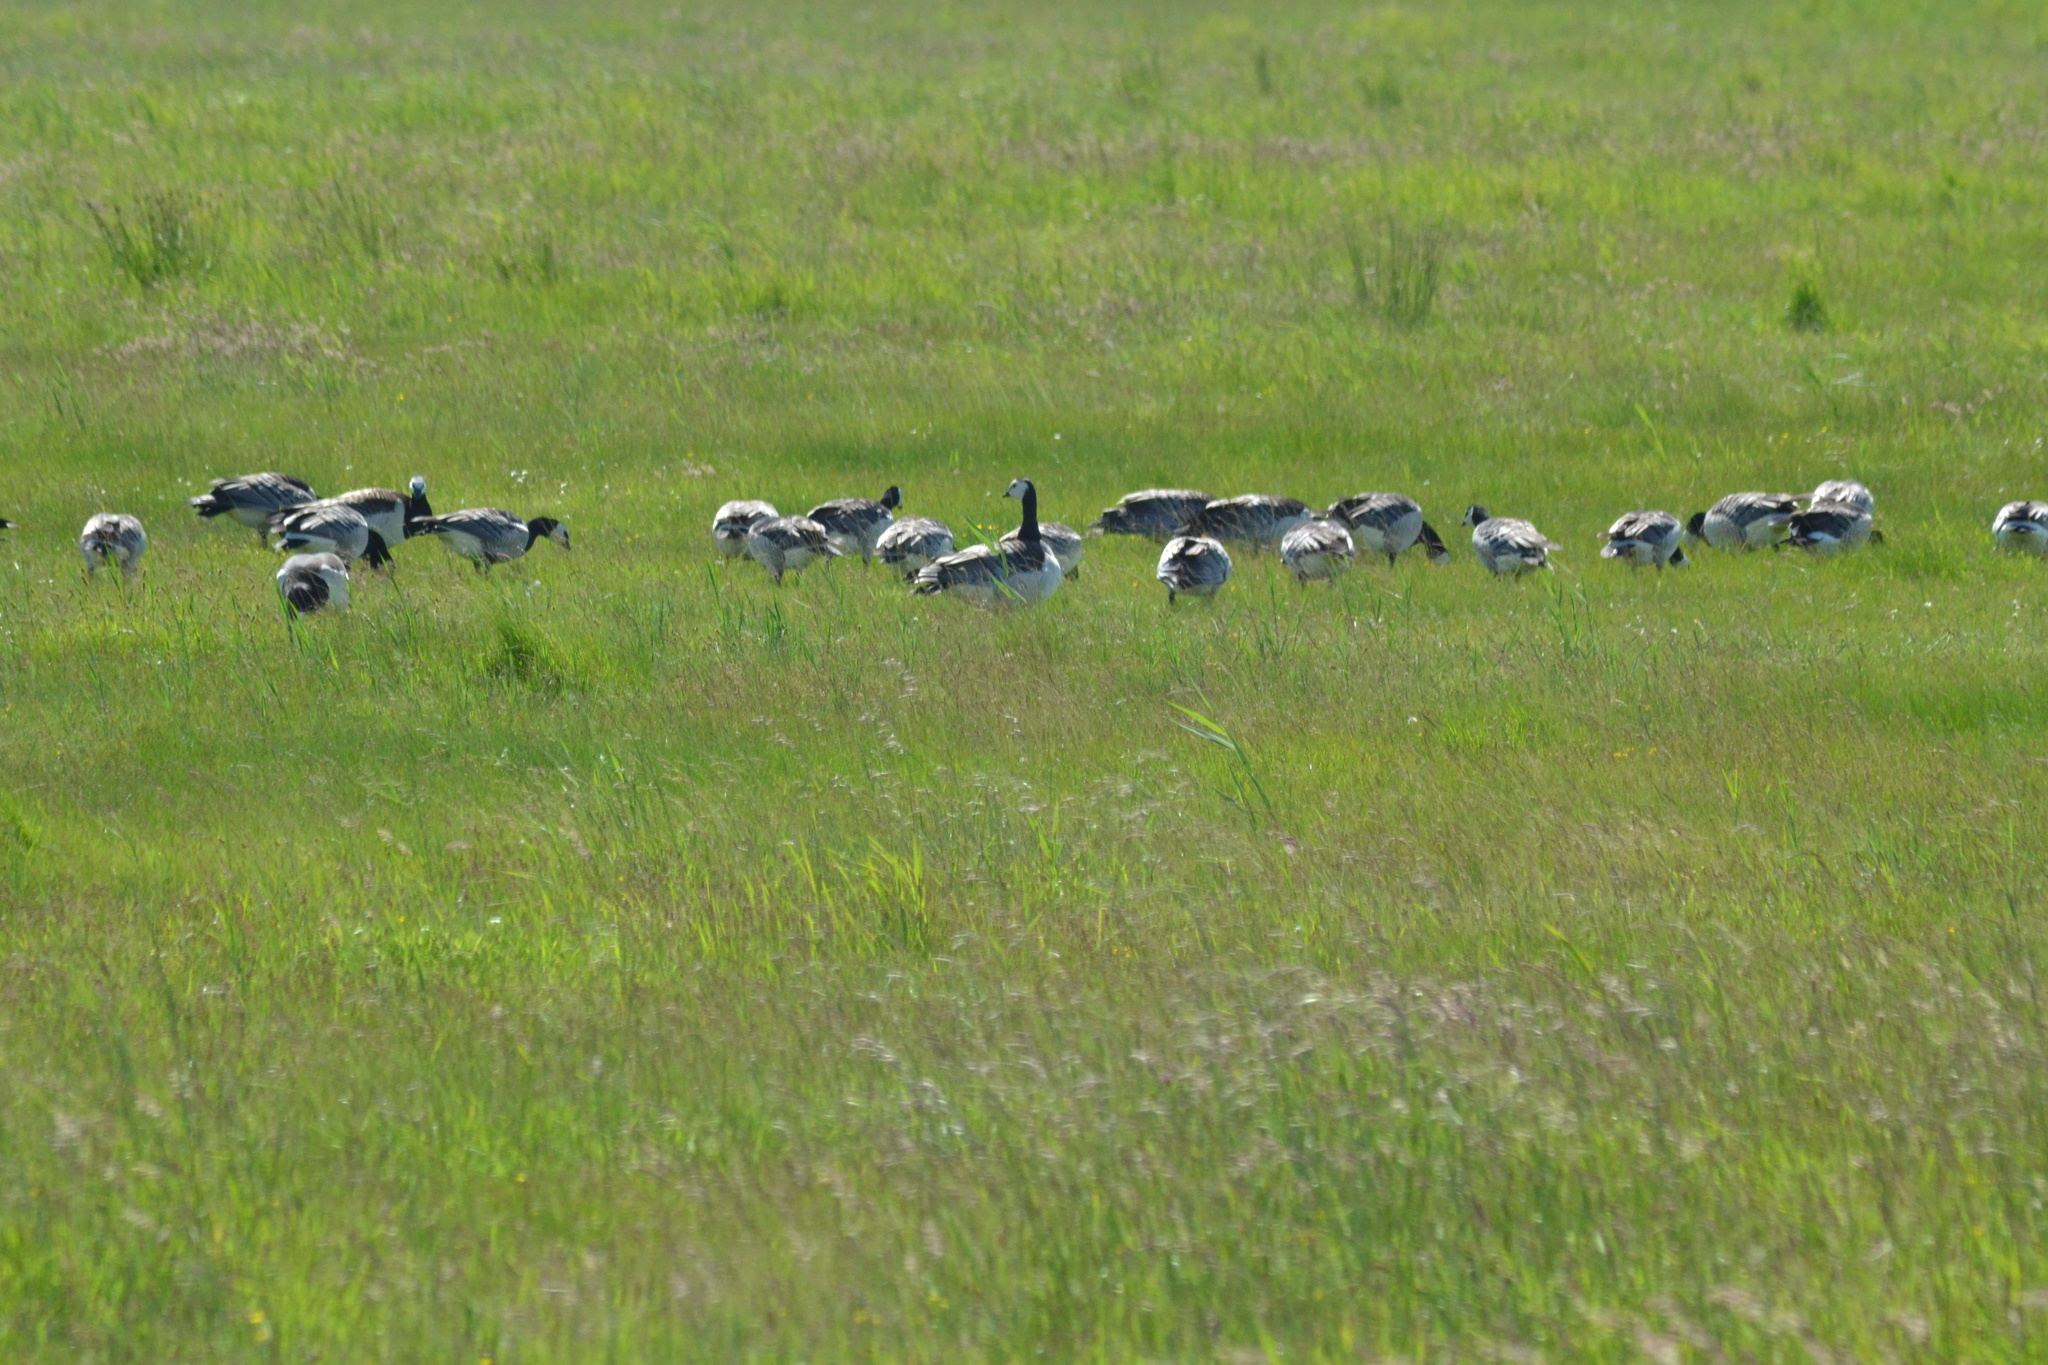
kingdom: Animalia
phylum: Chordata
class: Aves
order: Anseriformes
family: Anatidae
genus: Branta
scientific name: Branta leucopsis
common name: Barnacle goose
